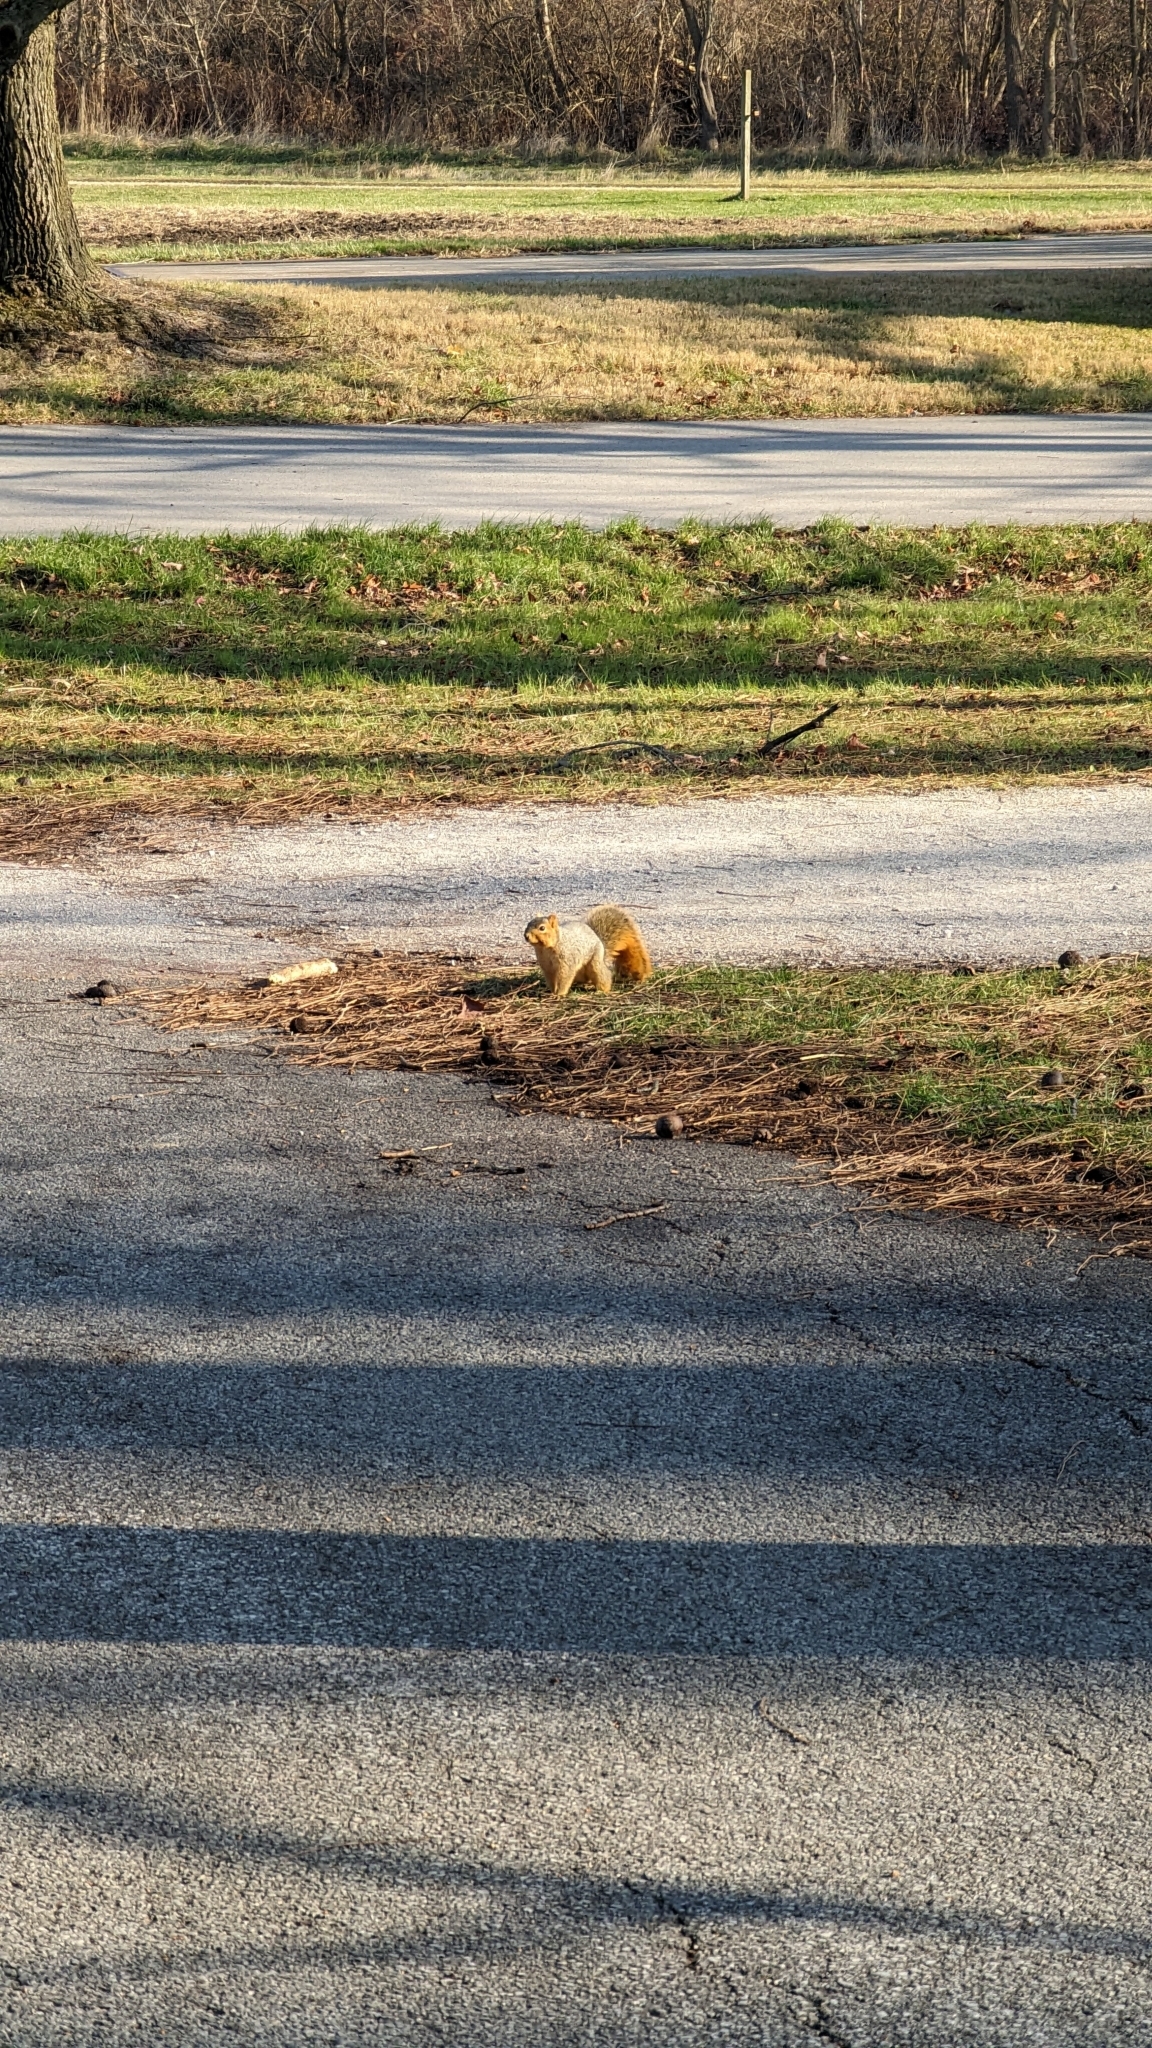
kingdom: Animalia
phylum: Chordata
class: Mammalia
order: Rodentia
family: Sciuridae
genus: Sciurus
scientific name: Sciurus niger
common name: Fox squirrel
